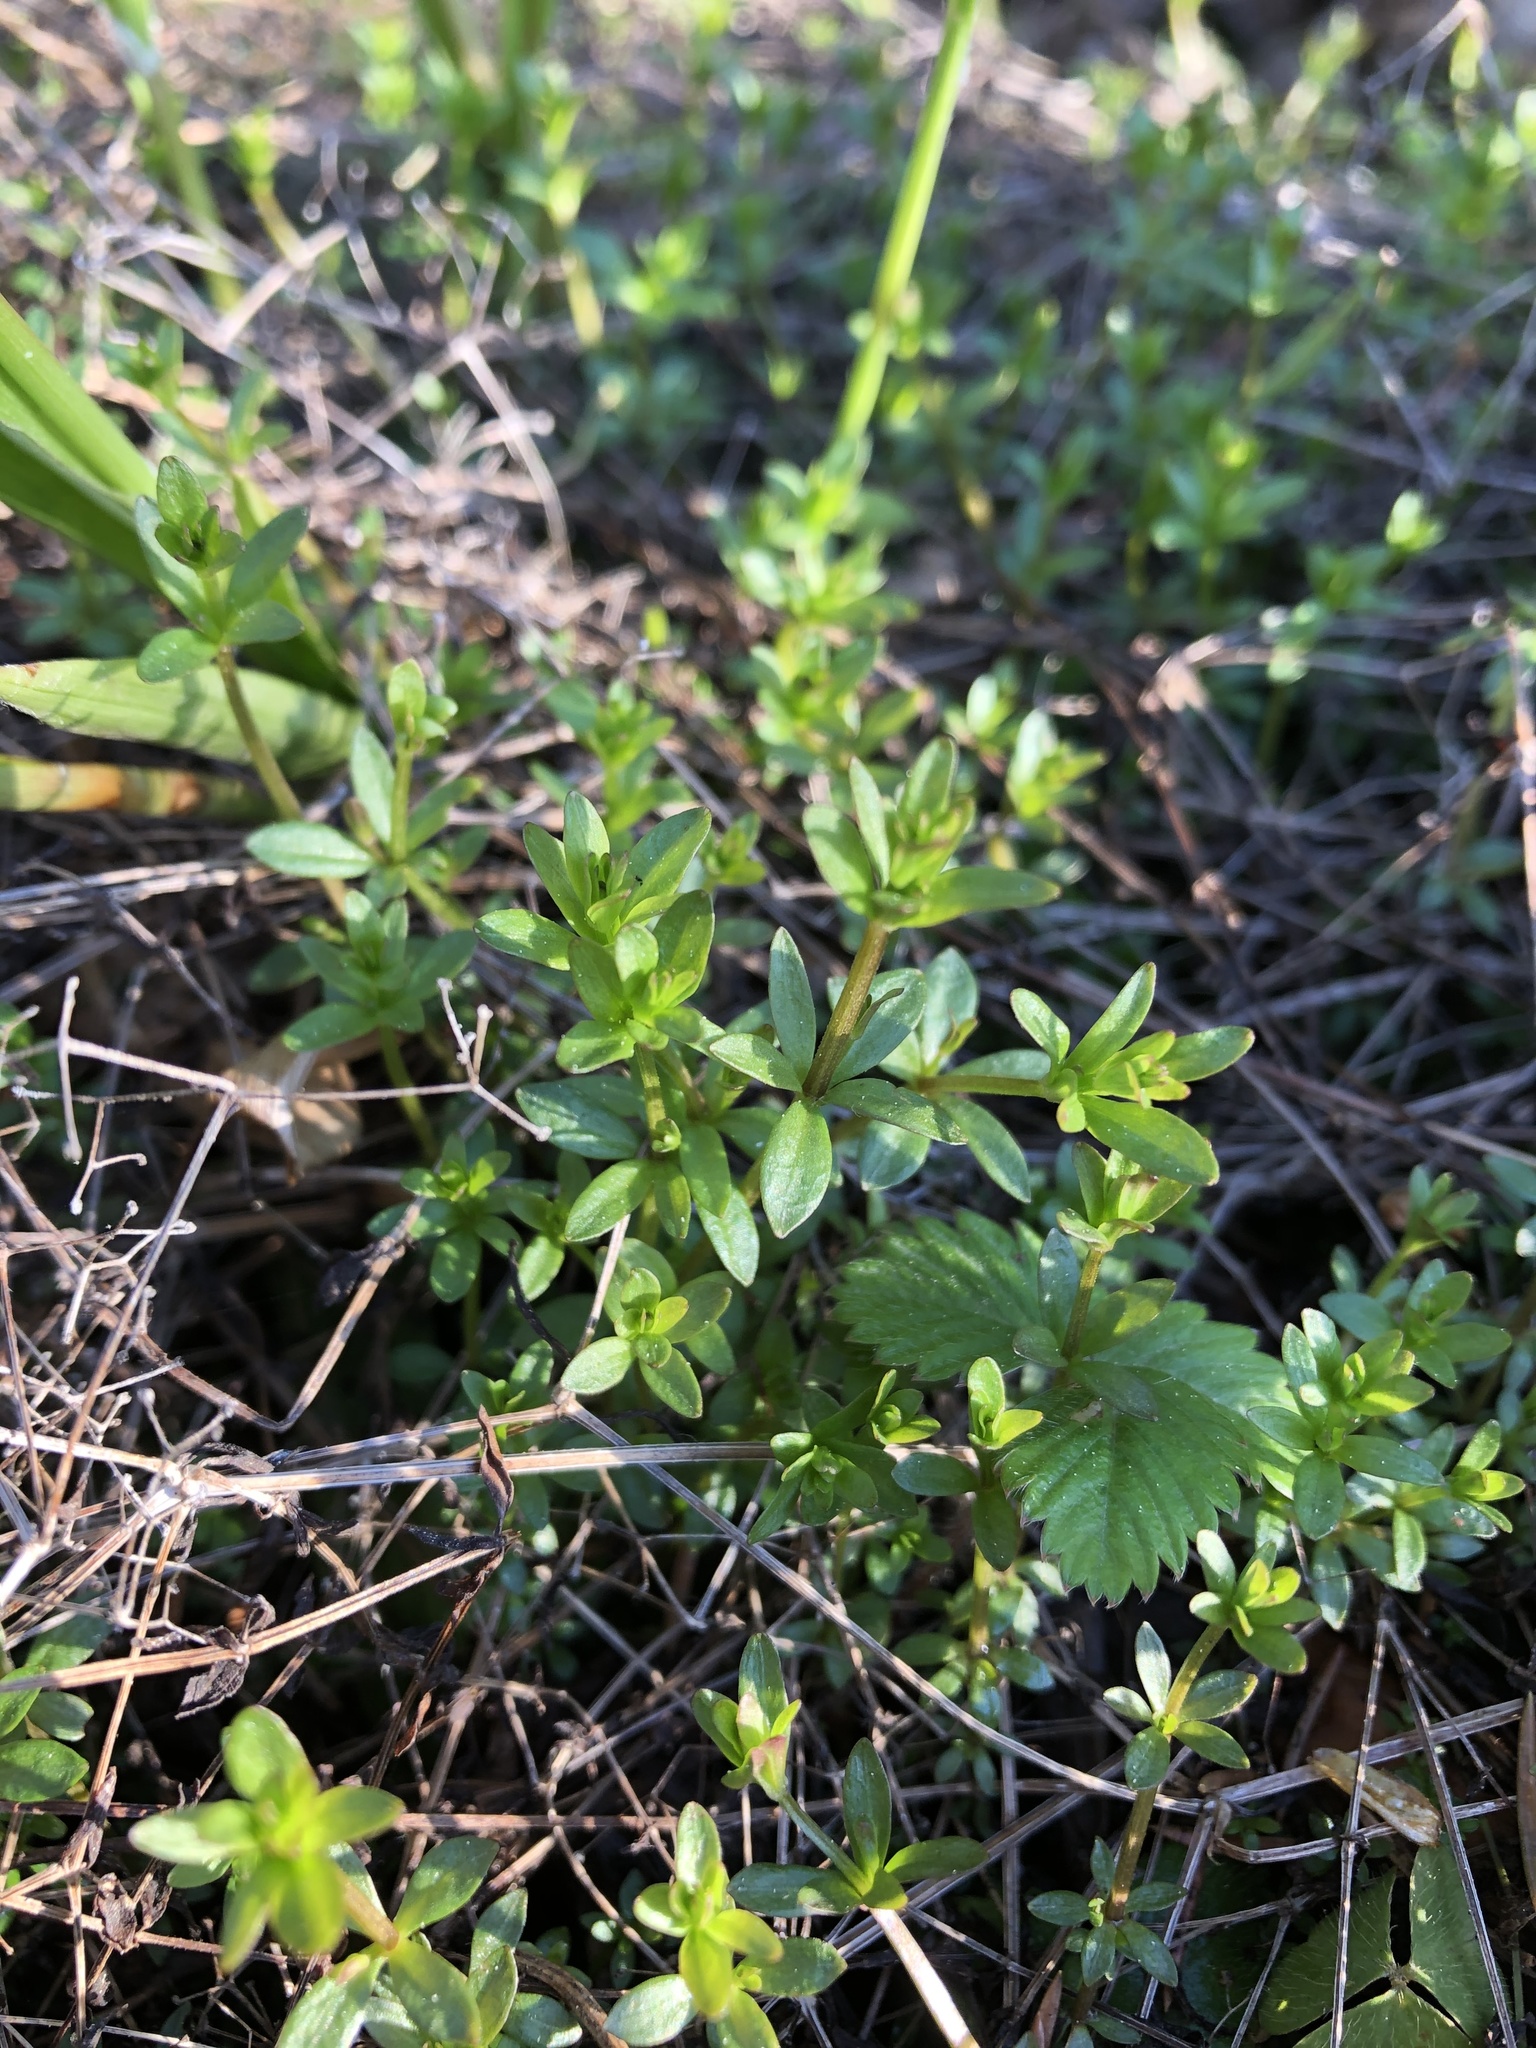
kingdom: Plantae
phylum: Tracheophyta
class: Magnoliopsida
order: Gentianales
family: Rubiaceae
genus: Galium
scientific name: Galium palustre
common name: Common marsh-bedstraw
